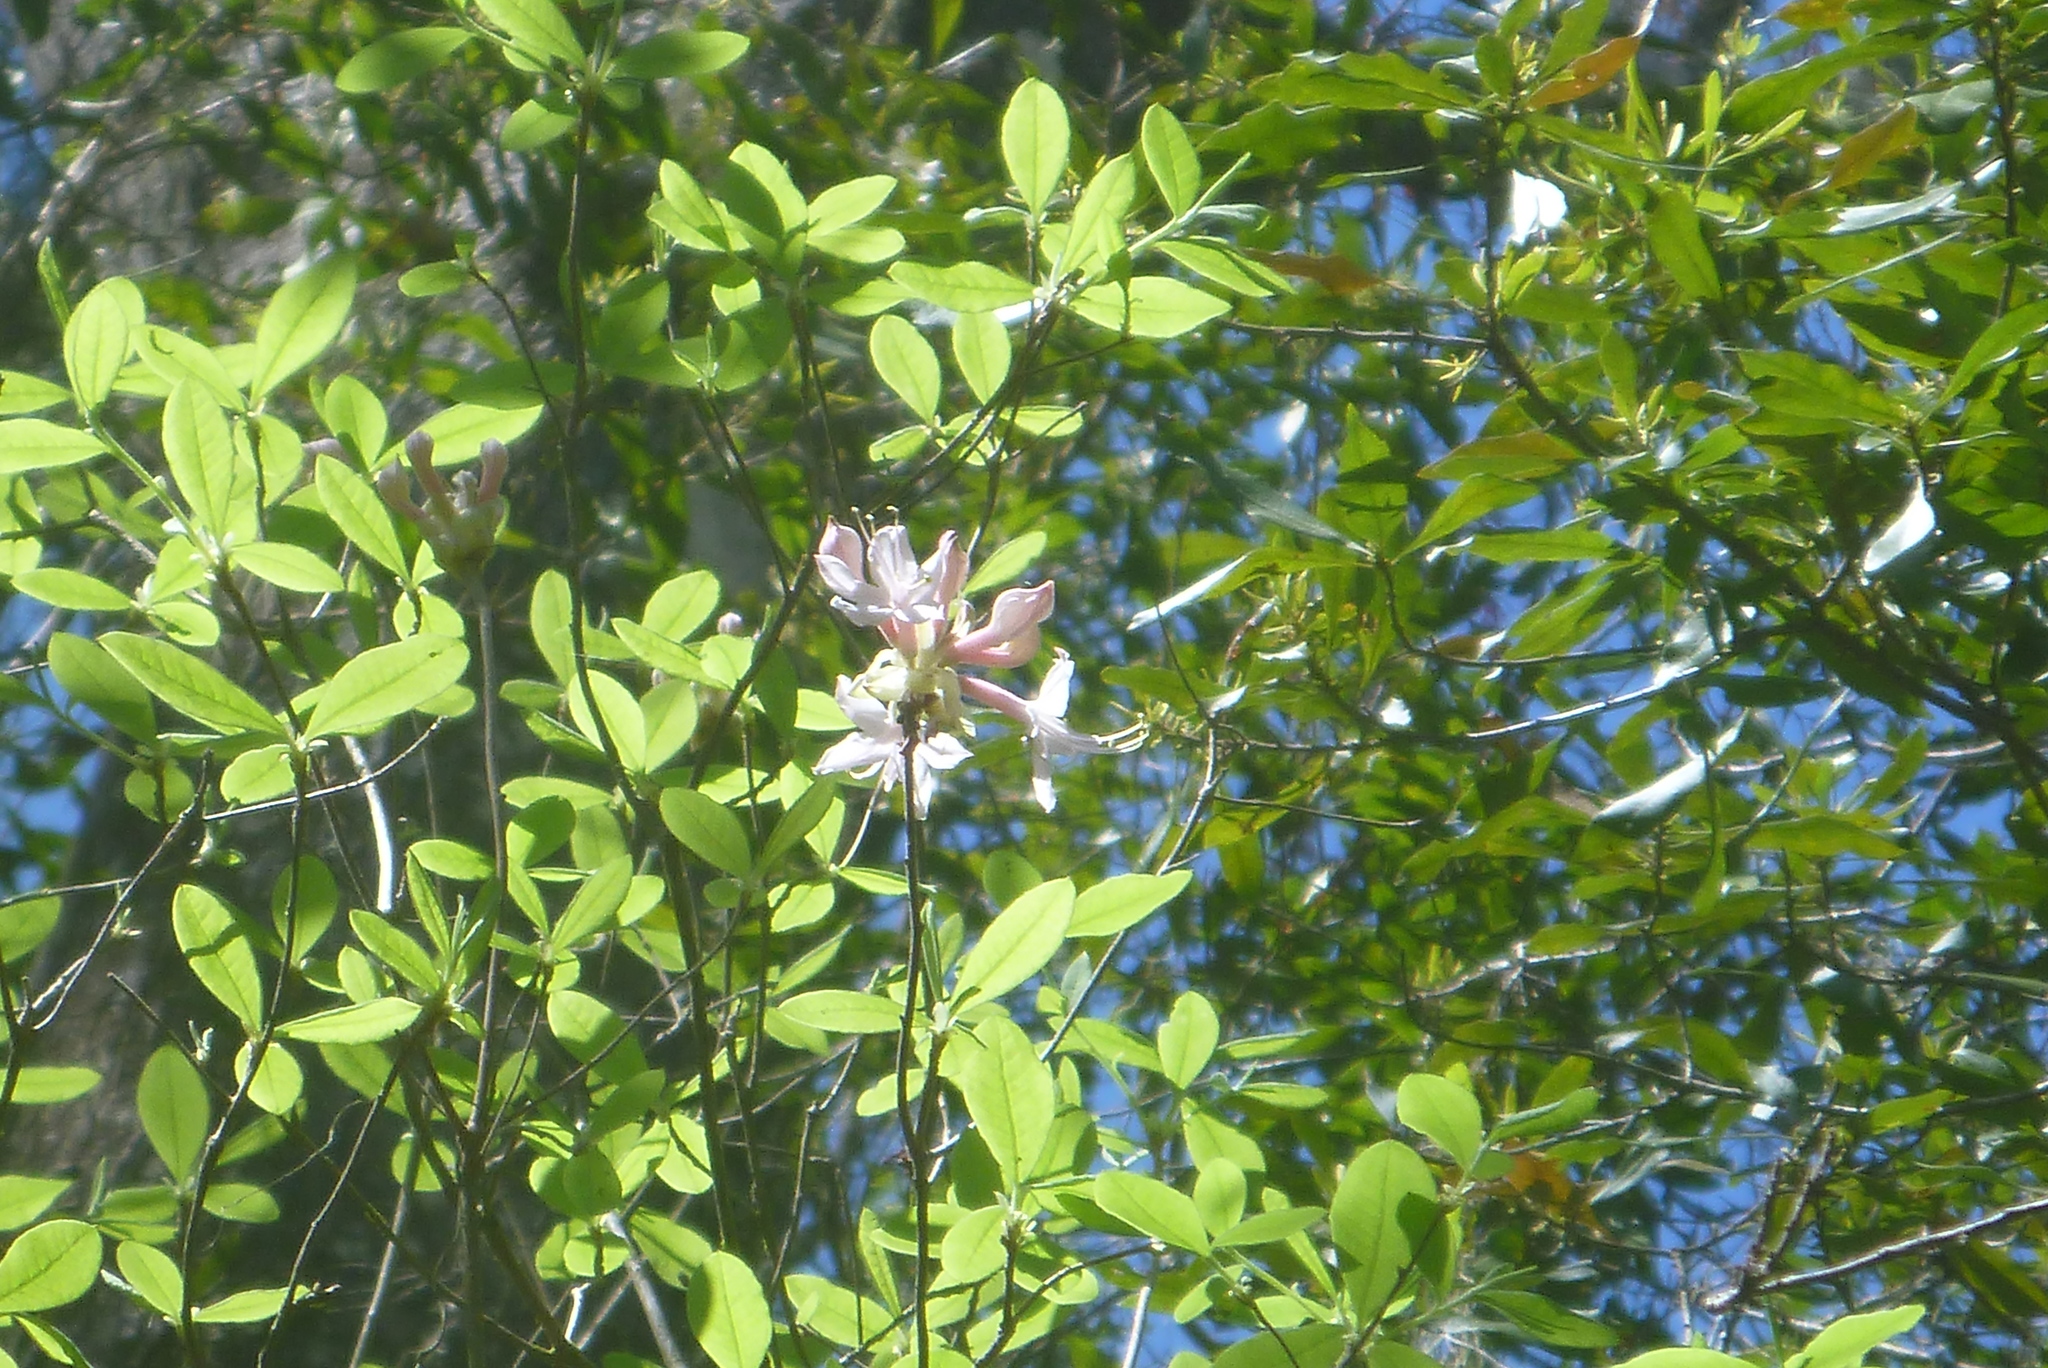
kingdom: Plantae
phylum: Tracheophyta
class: Magnoliopsida
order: Ericales
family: Ericaceae
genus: Rhododendron
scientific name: Rhododendron canescens
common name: Mountain azalea
